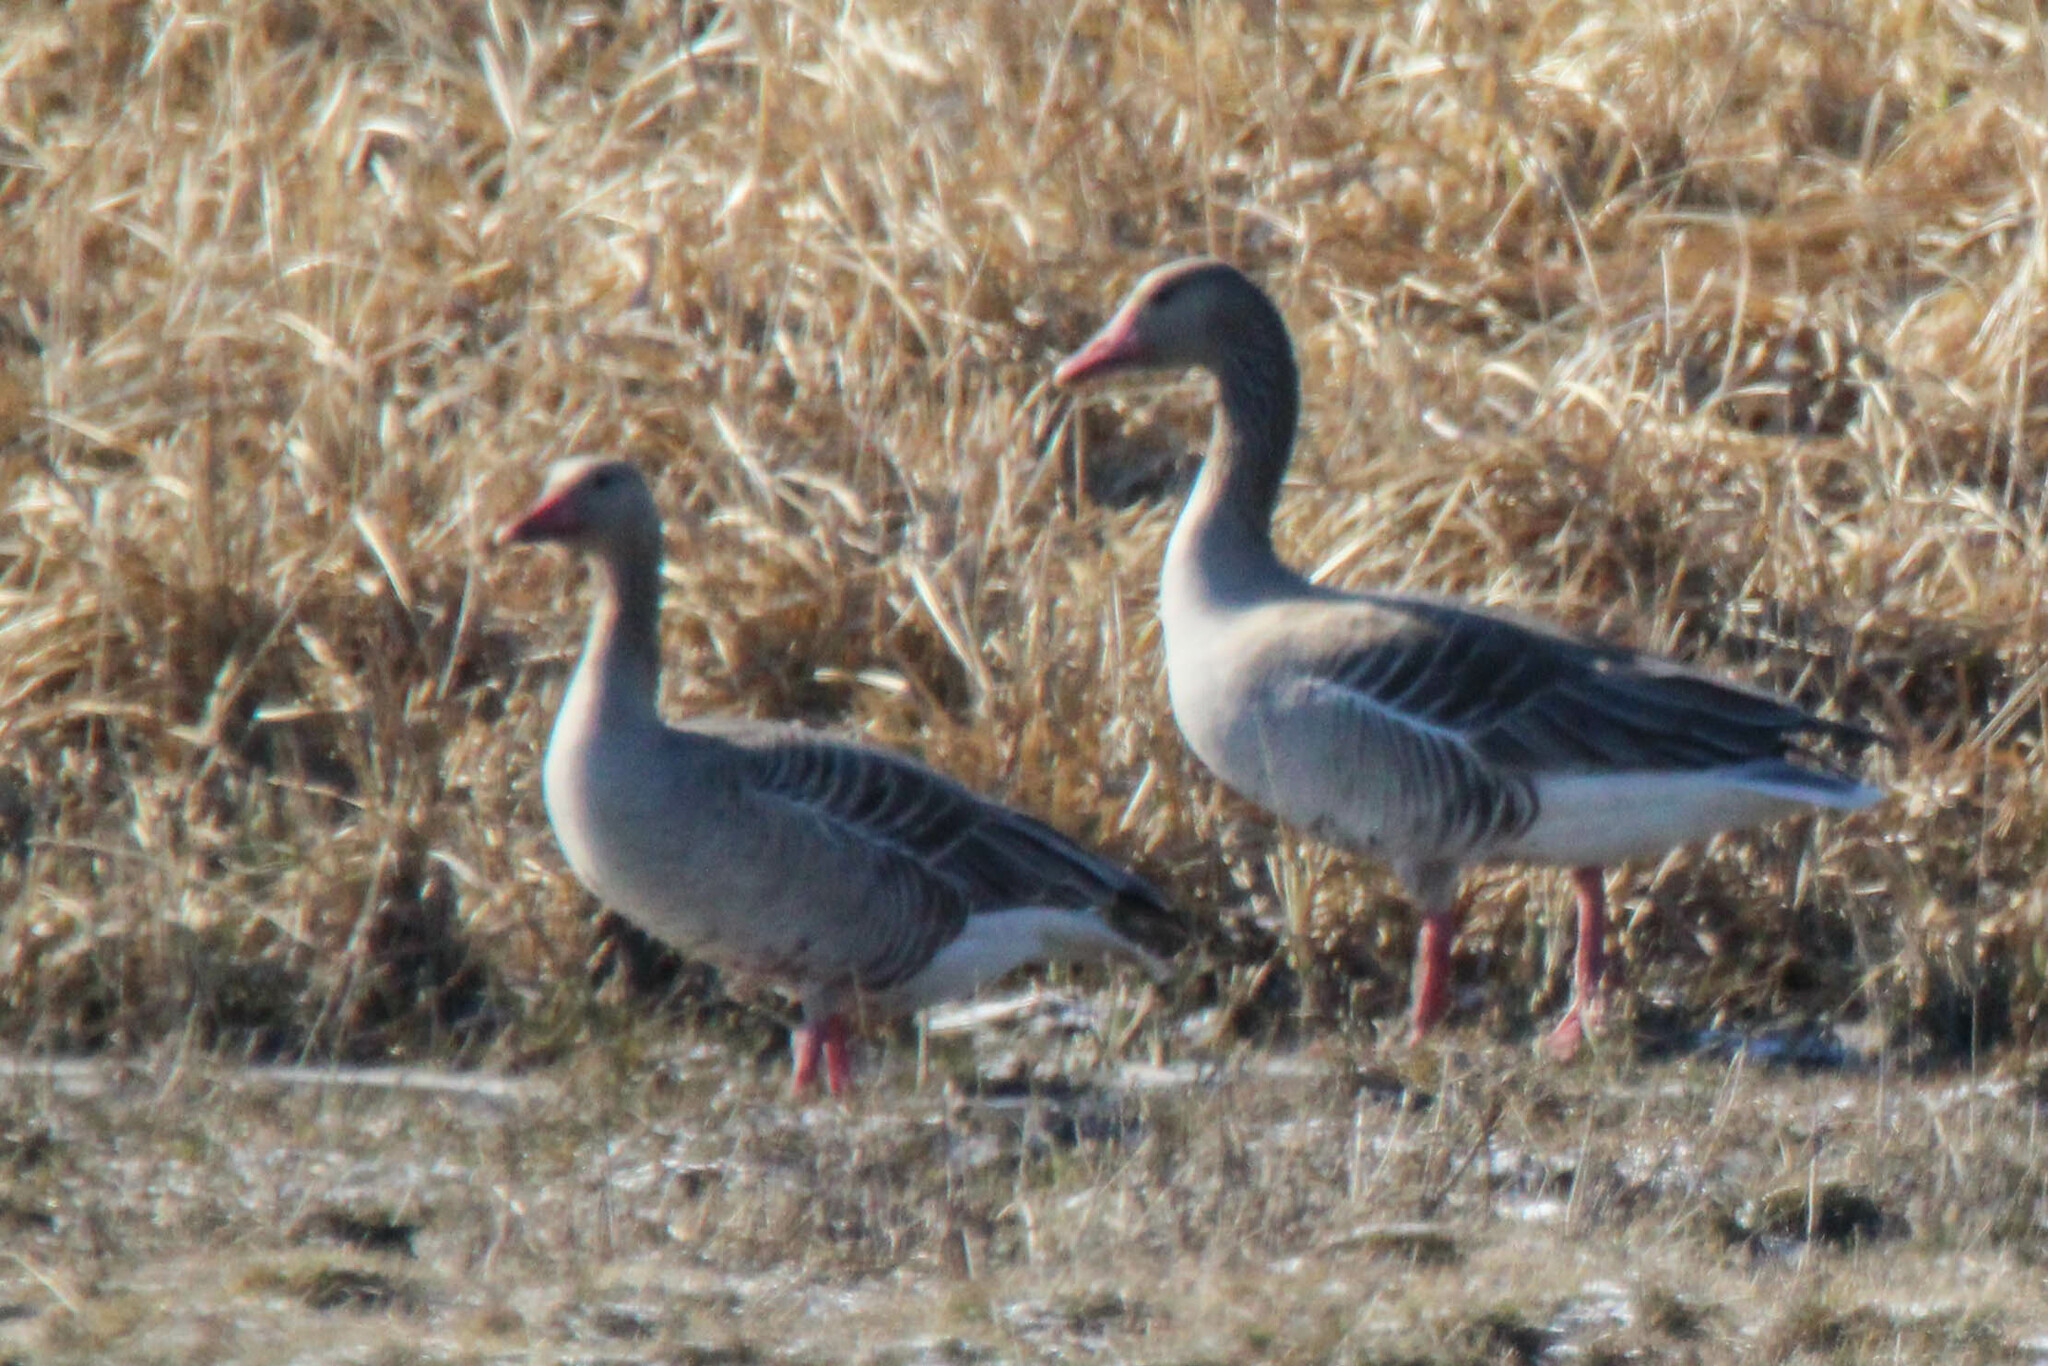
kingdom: Animalia
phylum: Chordata
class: Aves
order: Anseriformes
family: Anatidae
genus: Anser
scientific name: Anser anser
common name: Greylag goose
